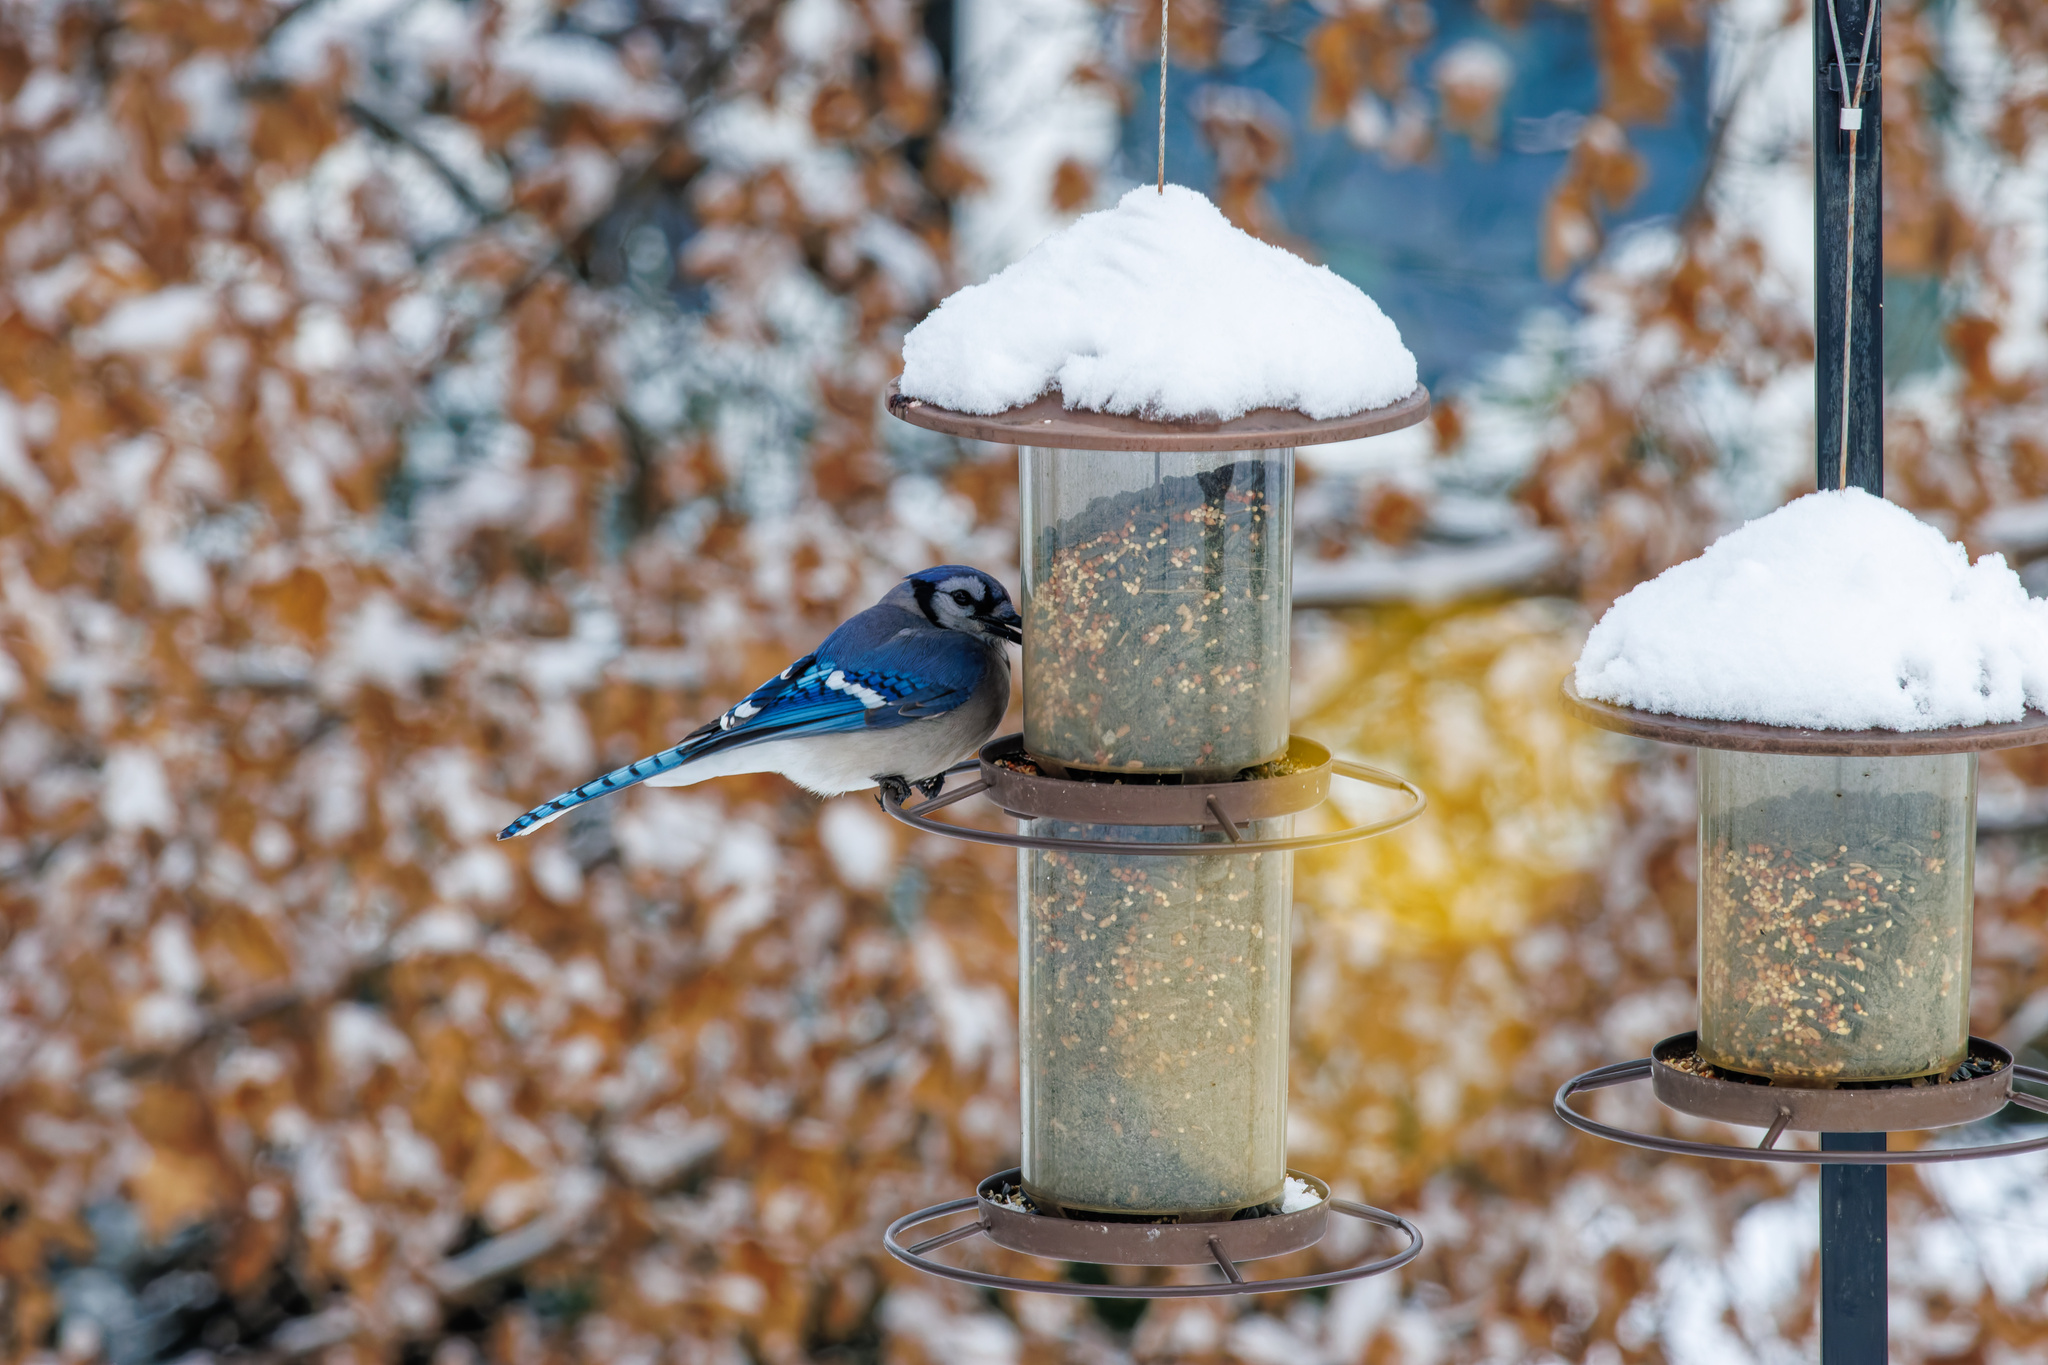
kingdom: Animalia
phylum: Chordata
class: Aves
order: Passeriformes
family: Corvidae
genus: Cyanocitta
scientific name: Cyanocitta cristata
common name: Blue jay
